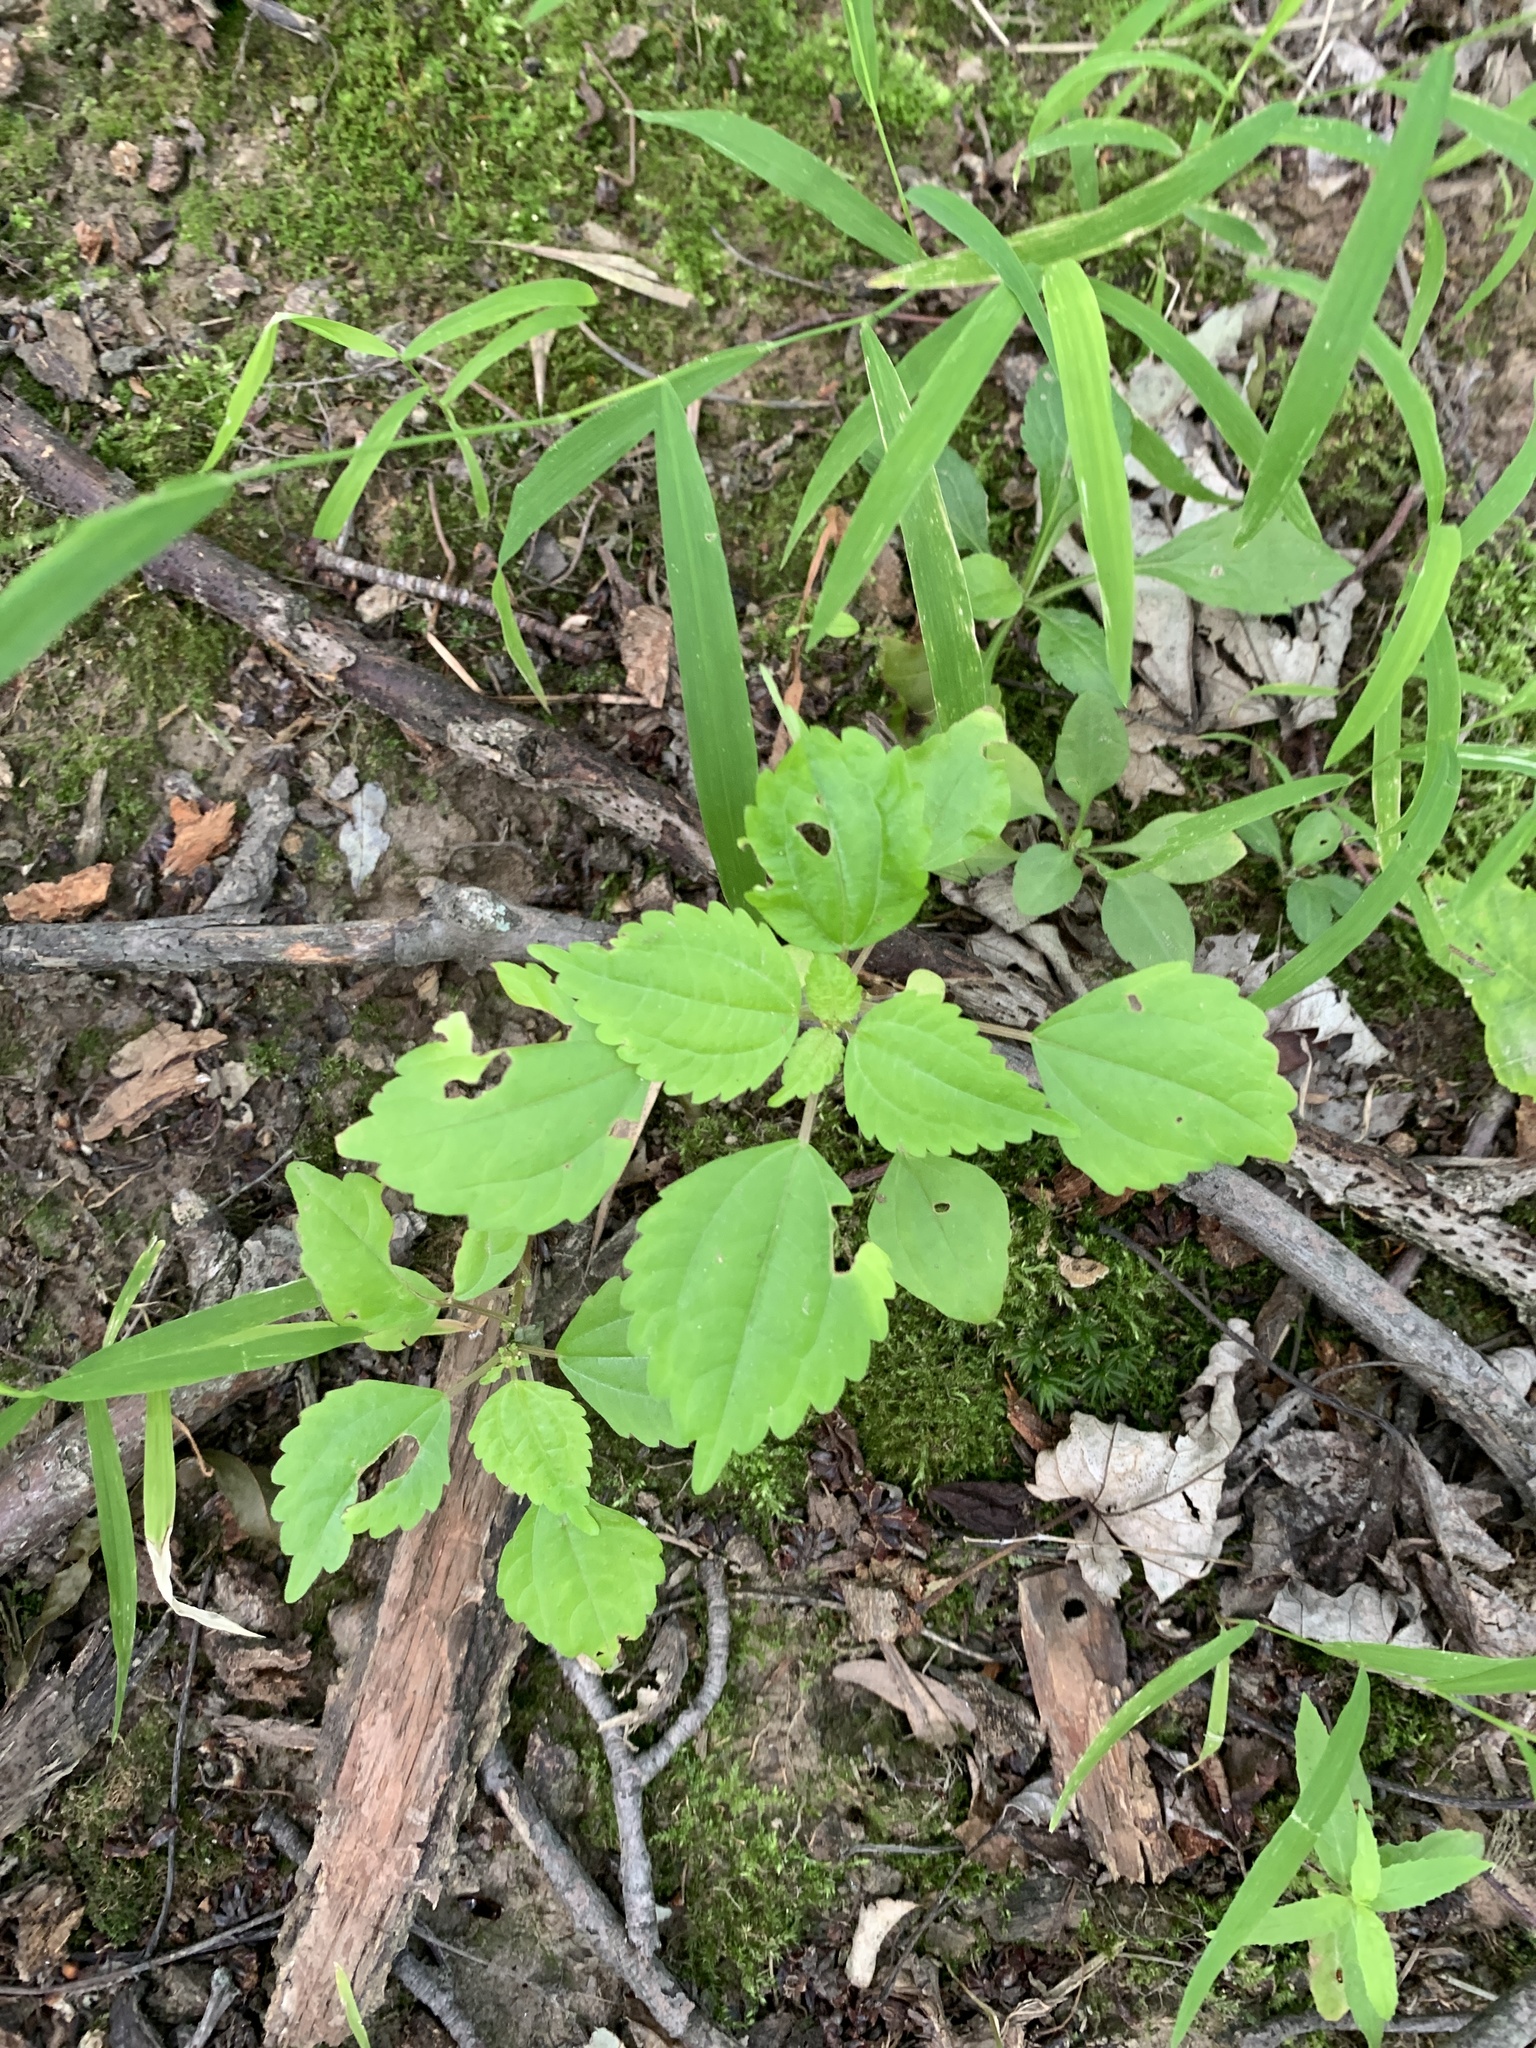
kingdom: Plantae
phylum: Tracheophyta
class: Magnoliopsida
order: Rosales
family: Urticaceae
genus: Pilea
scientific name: Pilea pumila
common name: Clearweed
